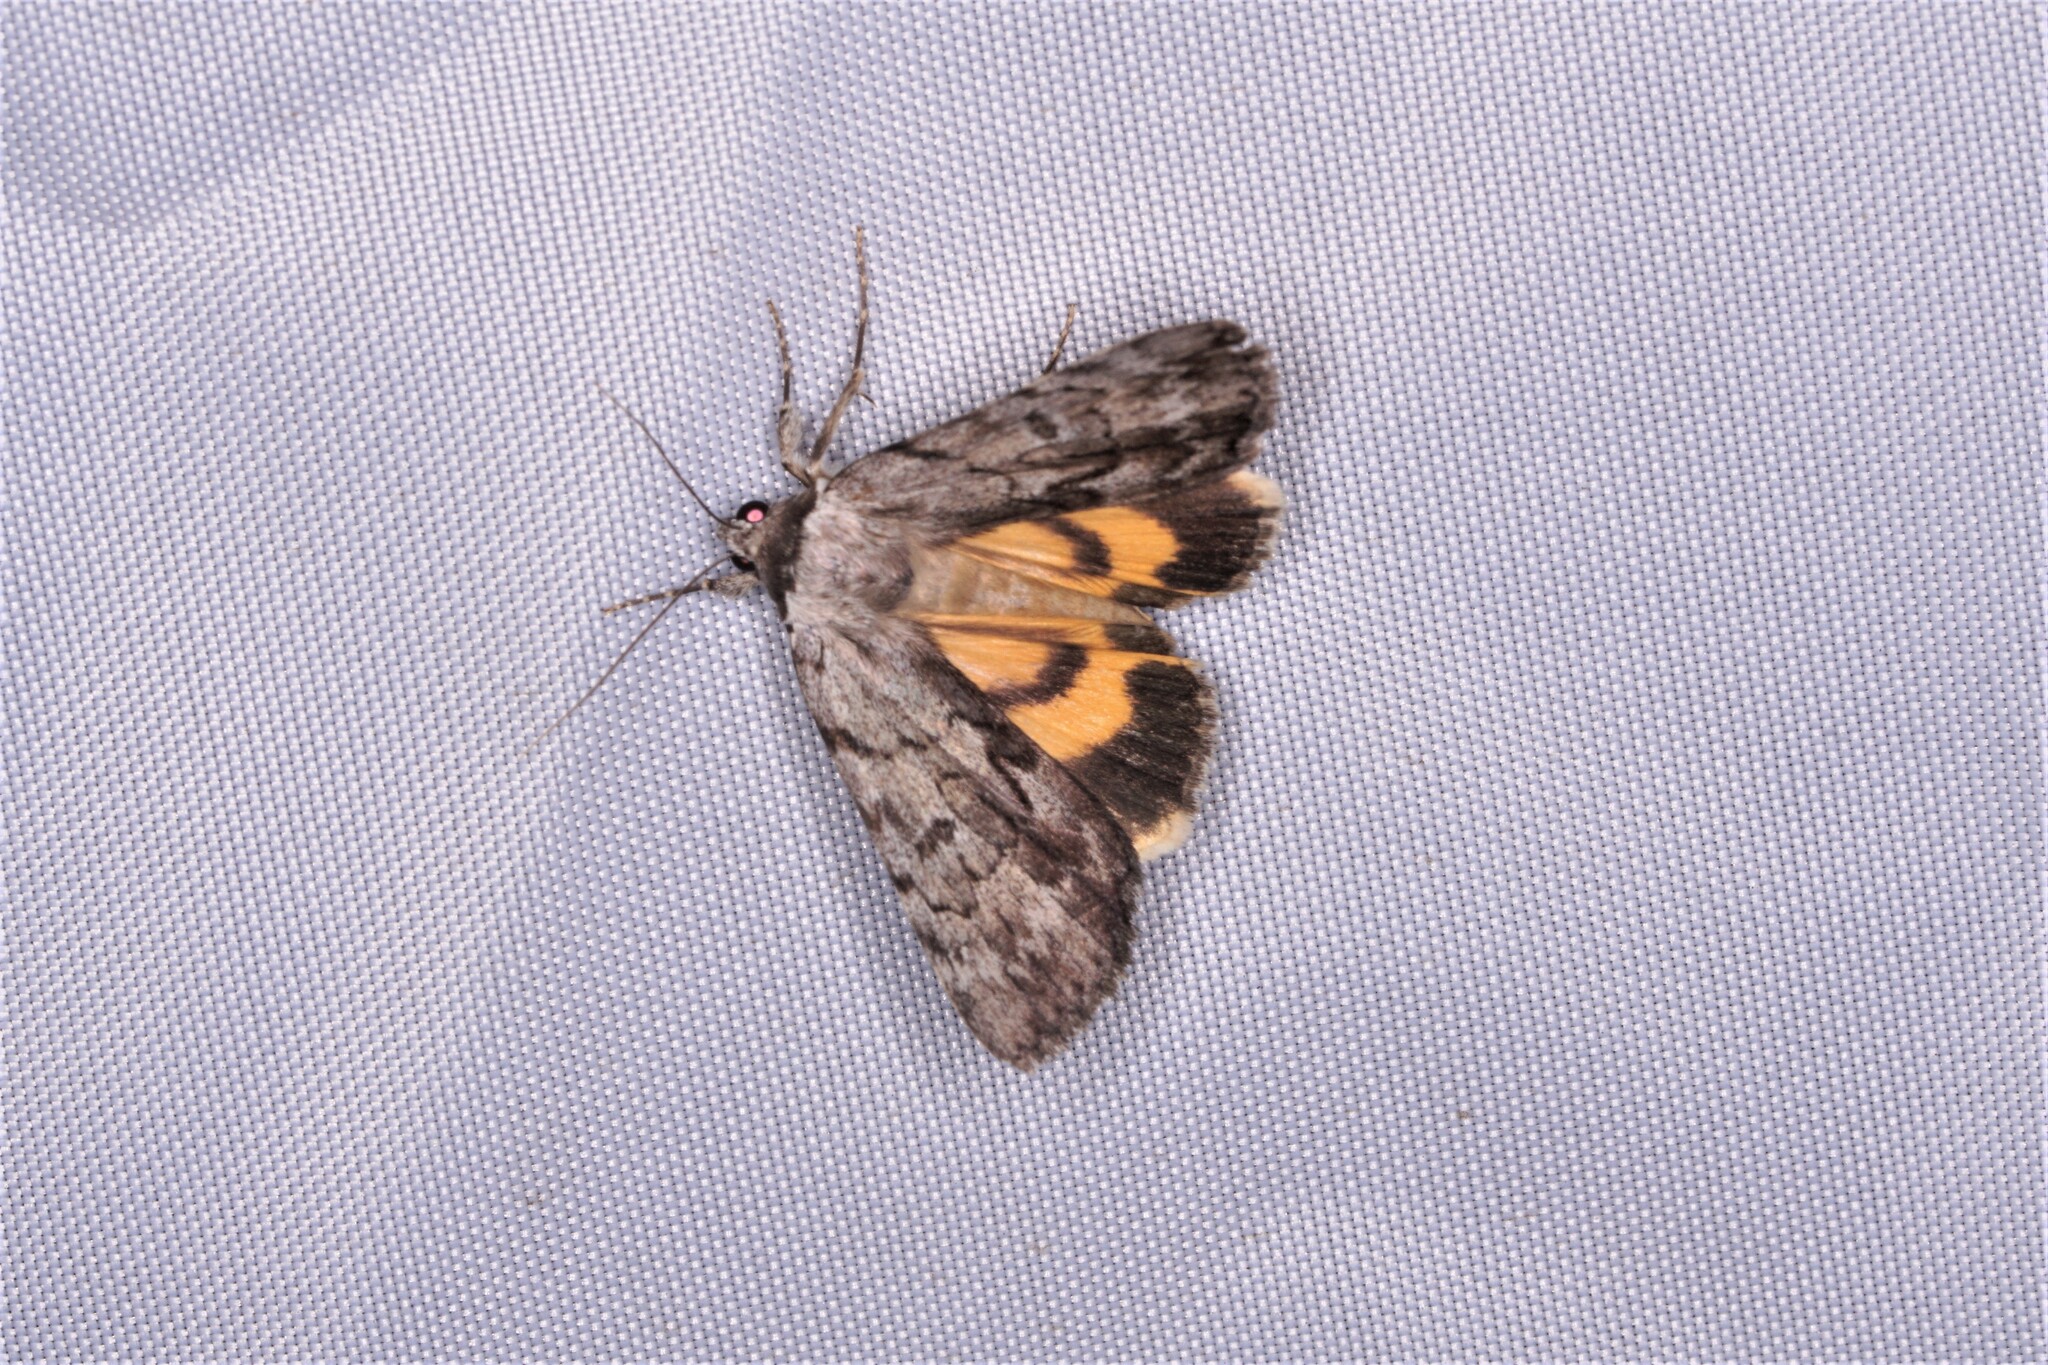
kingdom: Animalia
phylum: Arthropoda
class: Insecta
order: Lepidoptera
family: Erebidae
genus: Catocala
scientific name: Catocala sordida
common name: Sordid underwing
